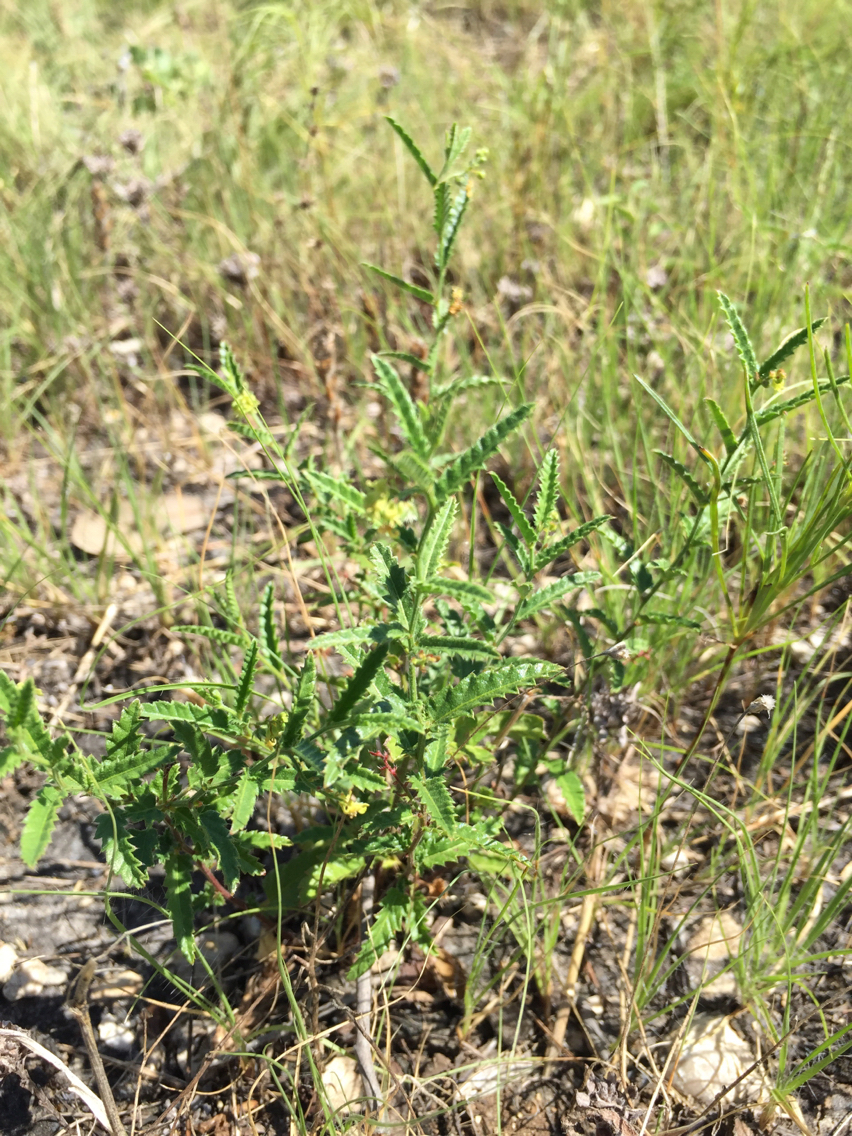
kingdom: Plantae
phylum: Tracheophyta
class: Magnoliopsida
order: Malpighiales
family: Euphorbiaceae
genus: Tragia
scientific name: Tragia ramosa
